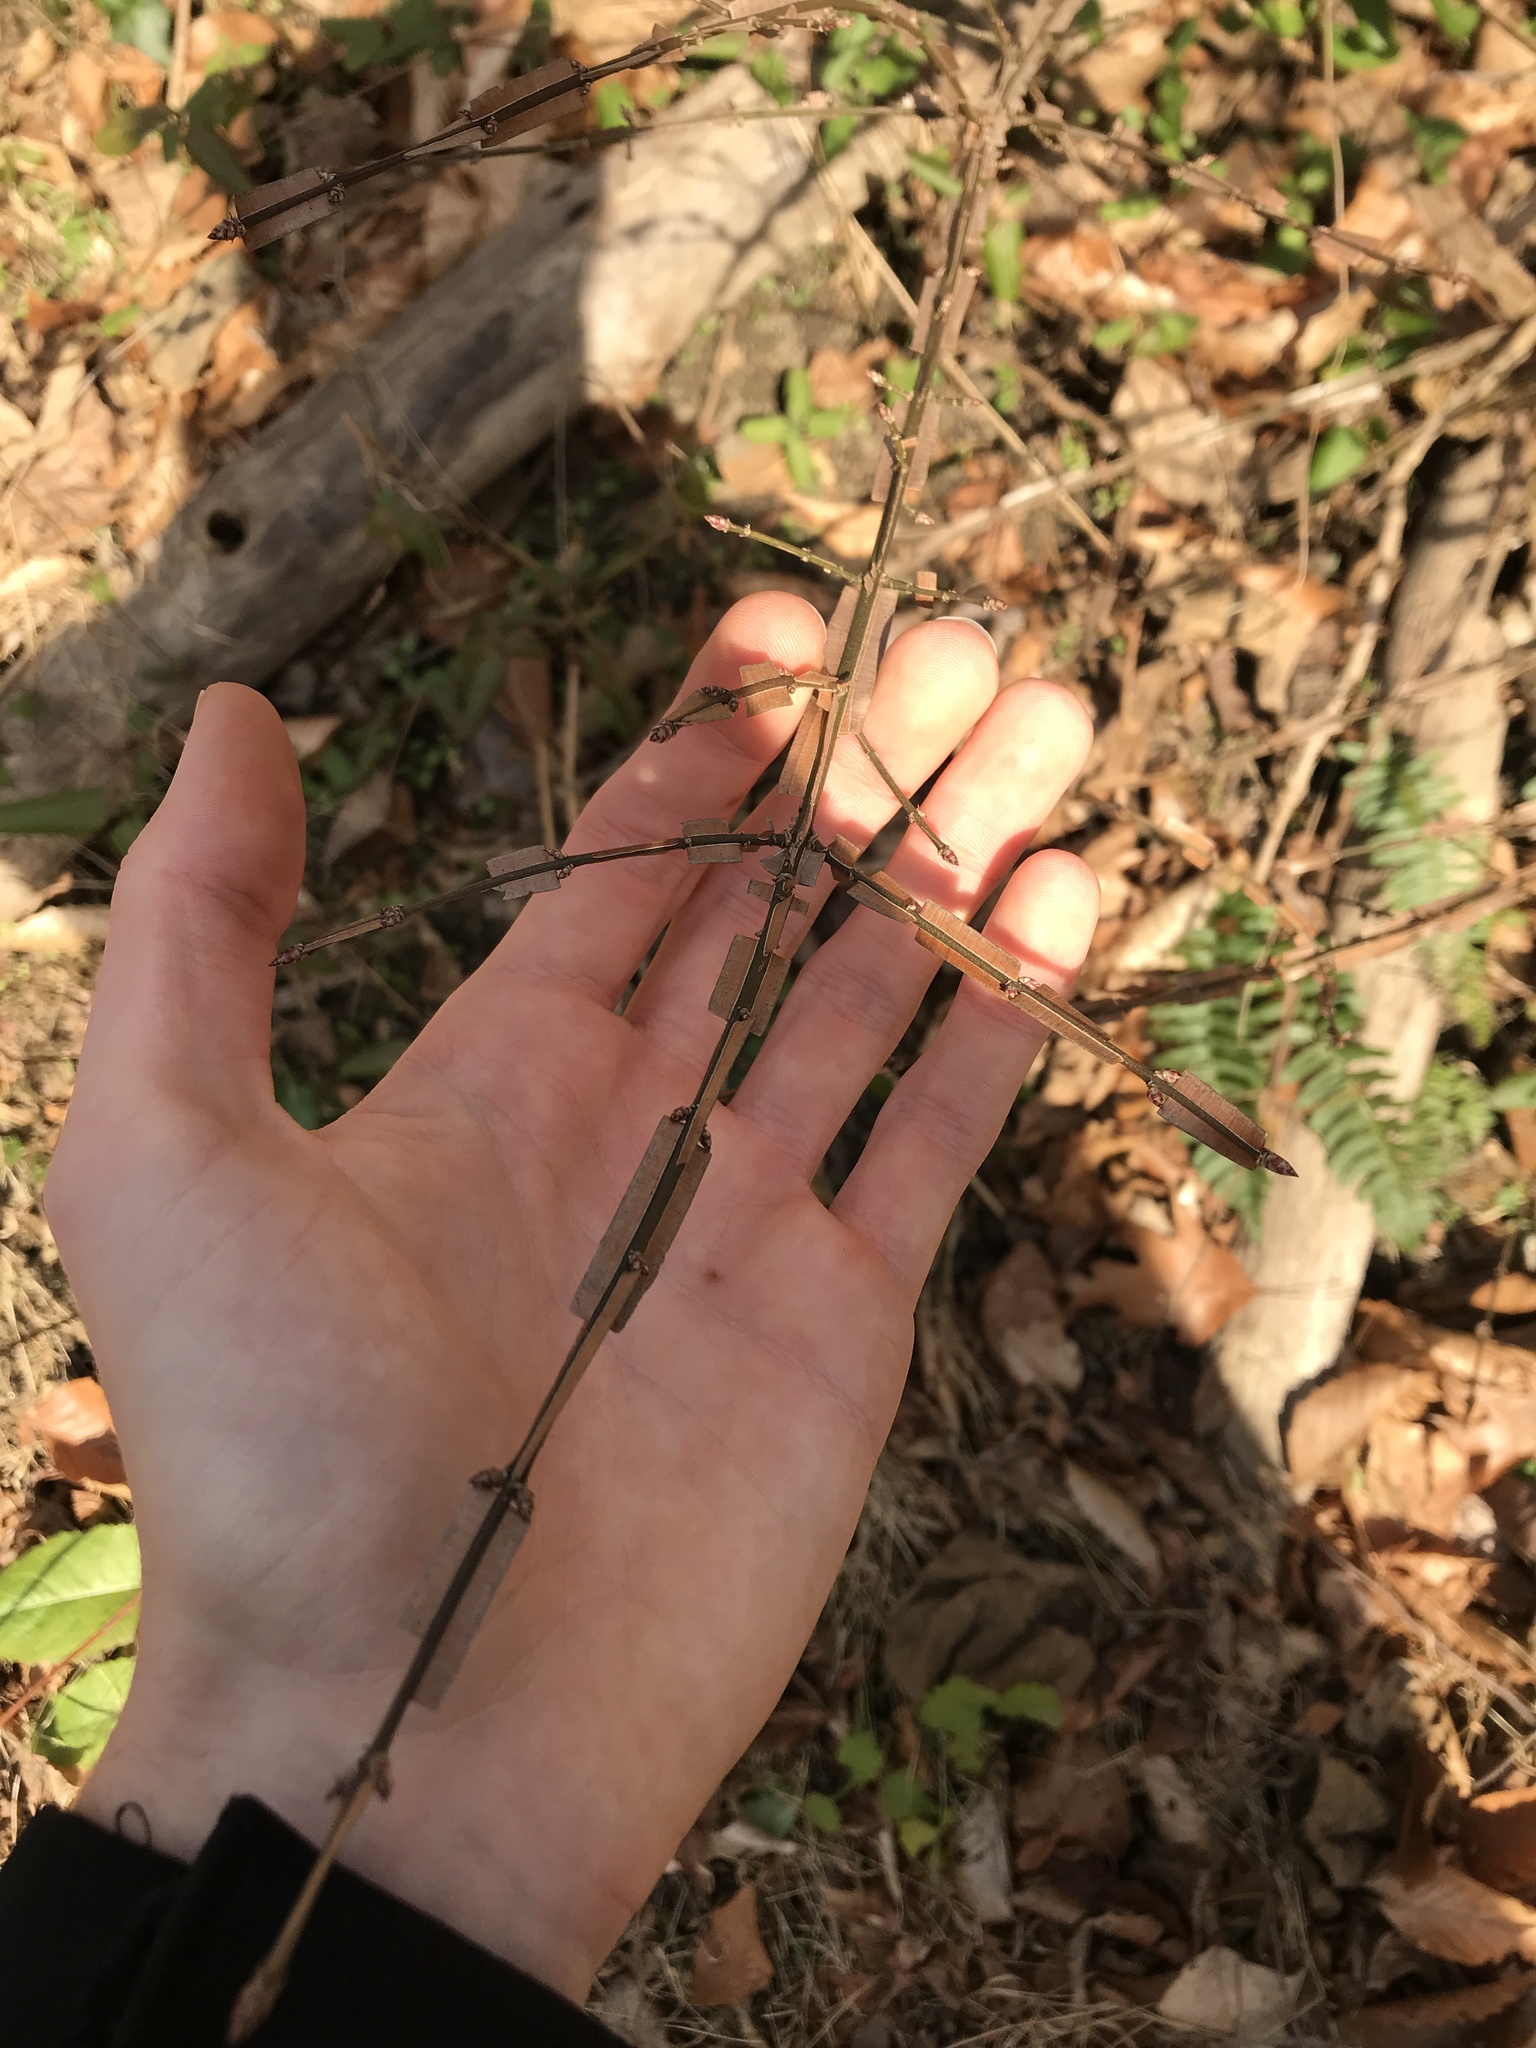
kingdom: Plantae
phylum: Tracheophyta
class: Magnoliopsida
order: Celastrales
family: Celastraceae
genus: Euonymus
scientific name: Euonymus alatus
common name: Winged euonymus
